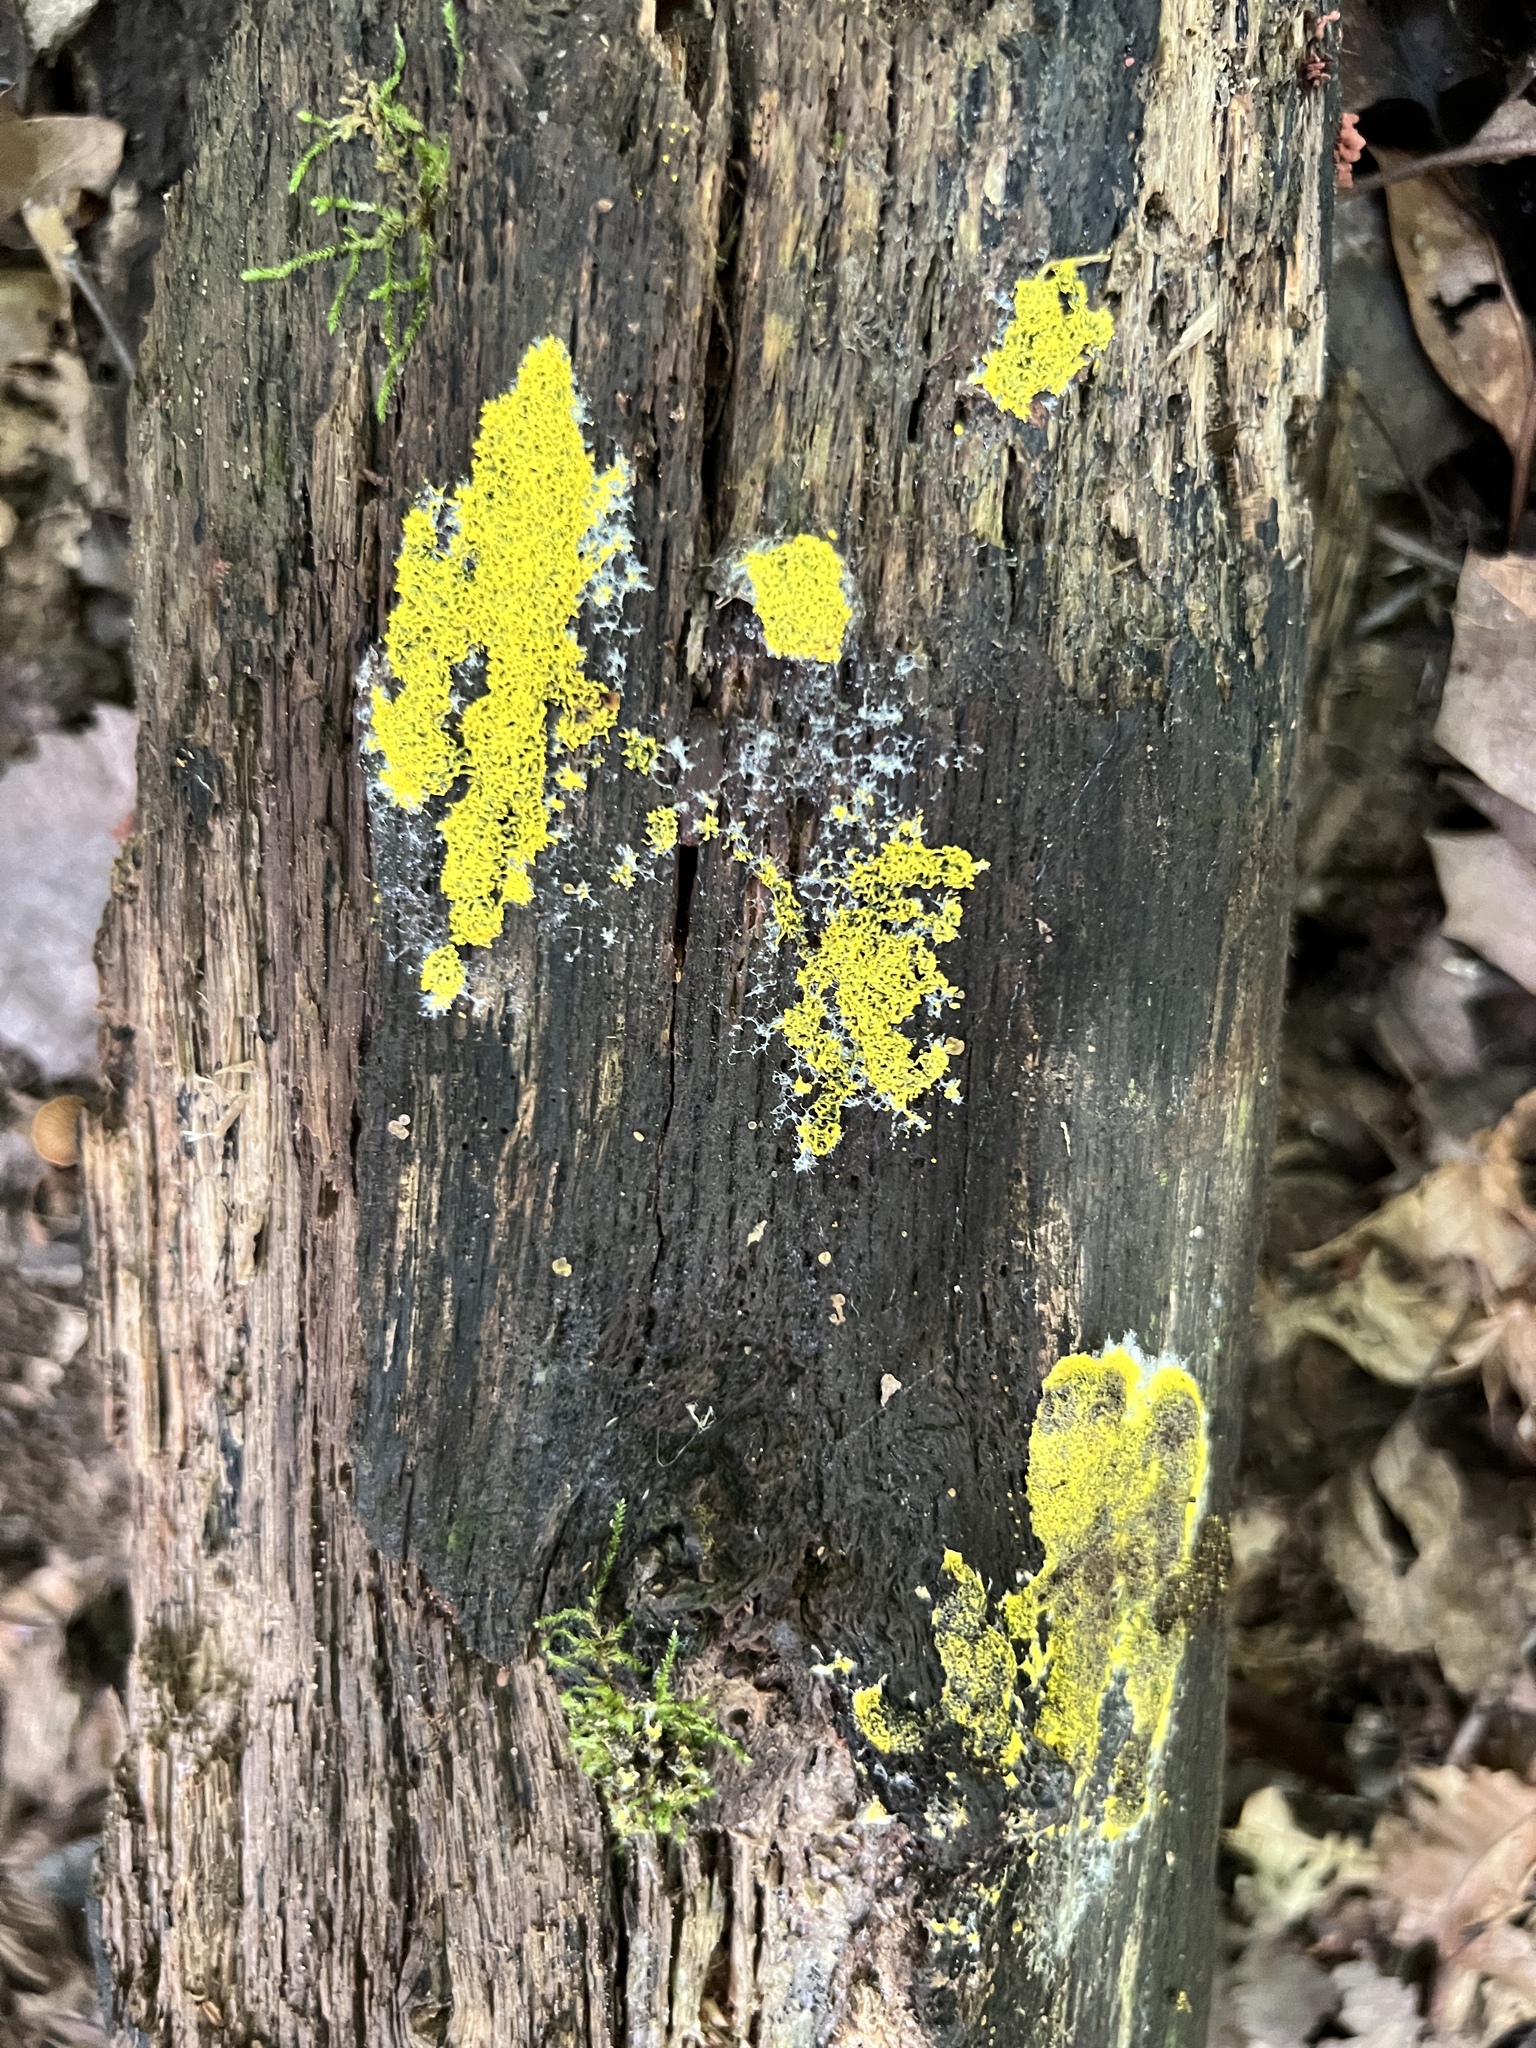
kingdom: Protozoa
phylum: Mycetozoa
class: Myxomycetes
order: Physarales
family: Physaraceae
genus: Fuligo
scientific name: Fuligo septica
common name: Dog vomit slime mold
